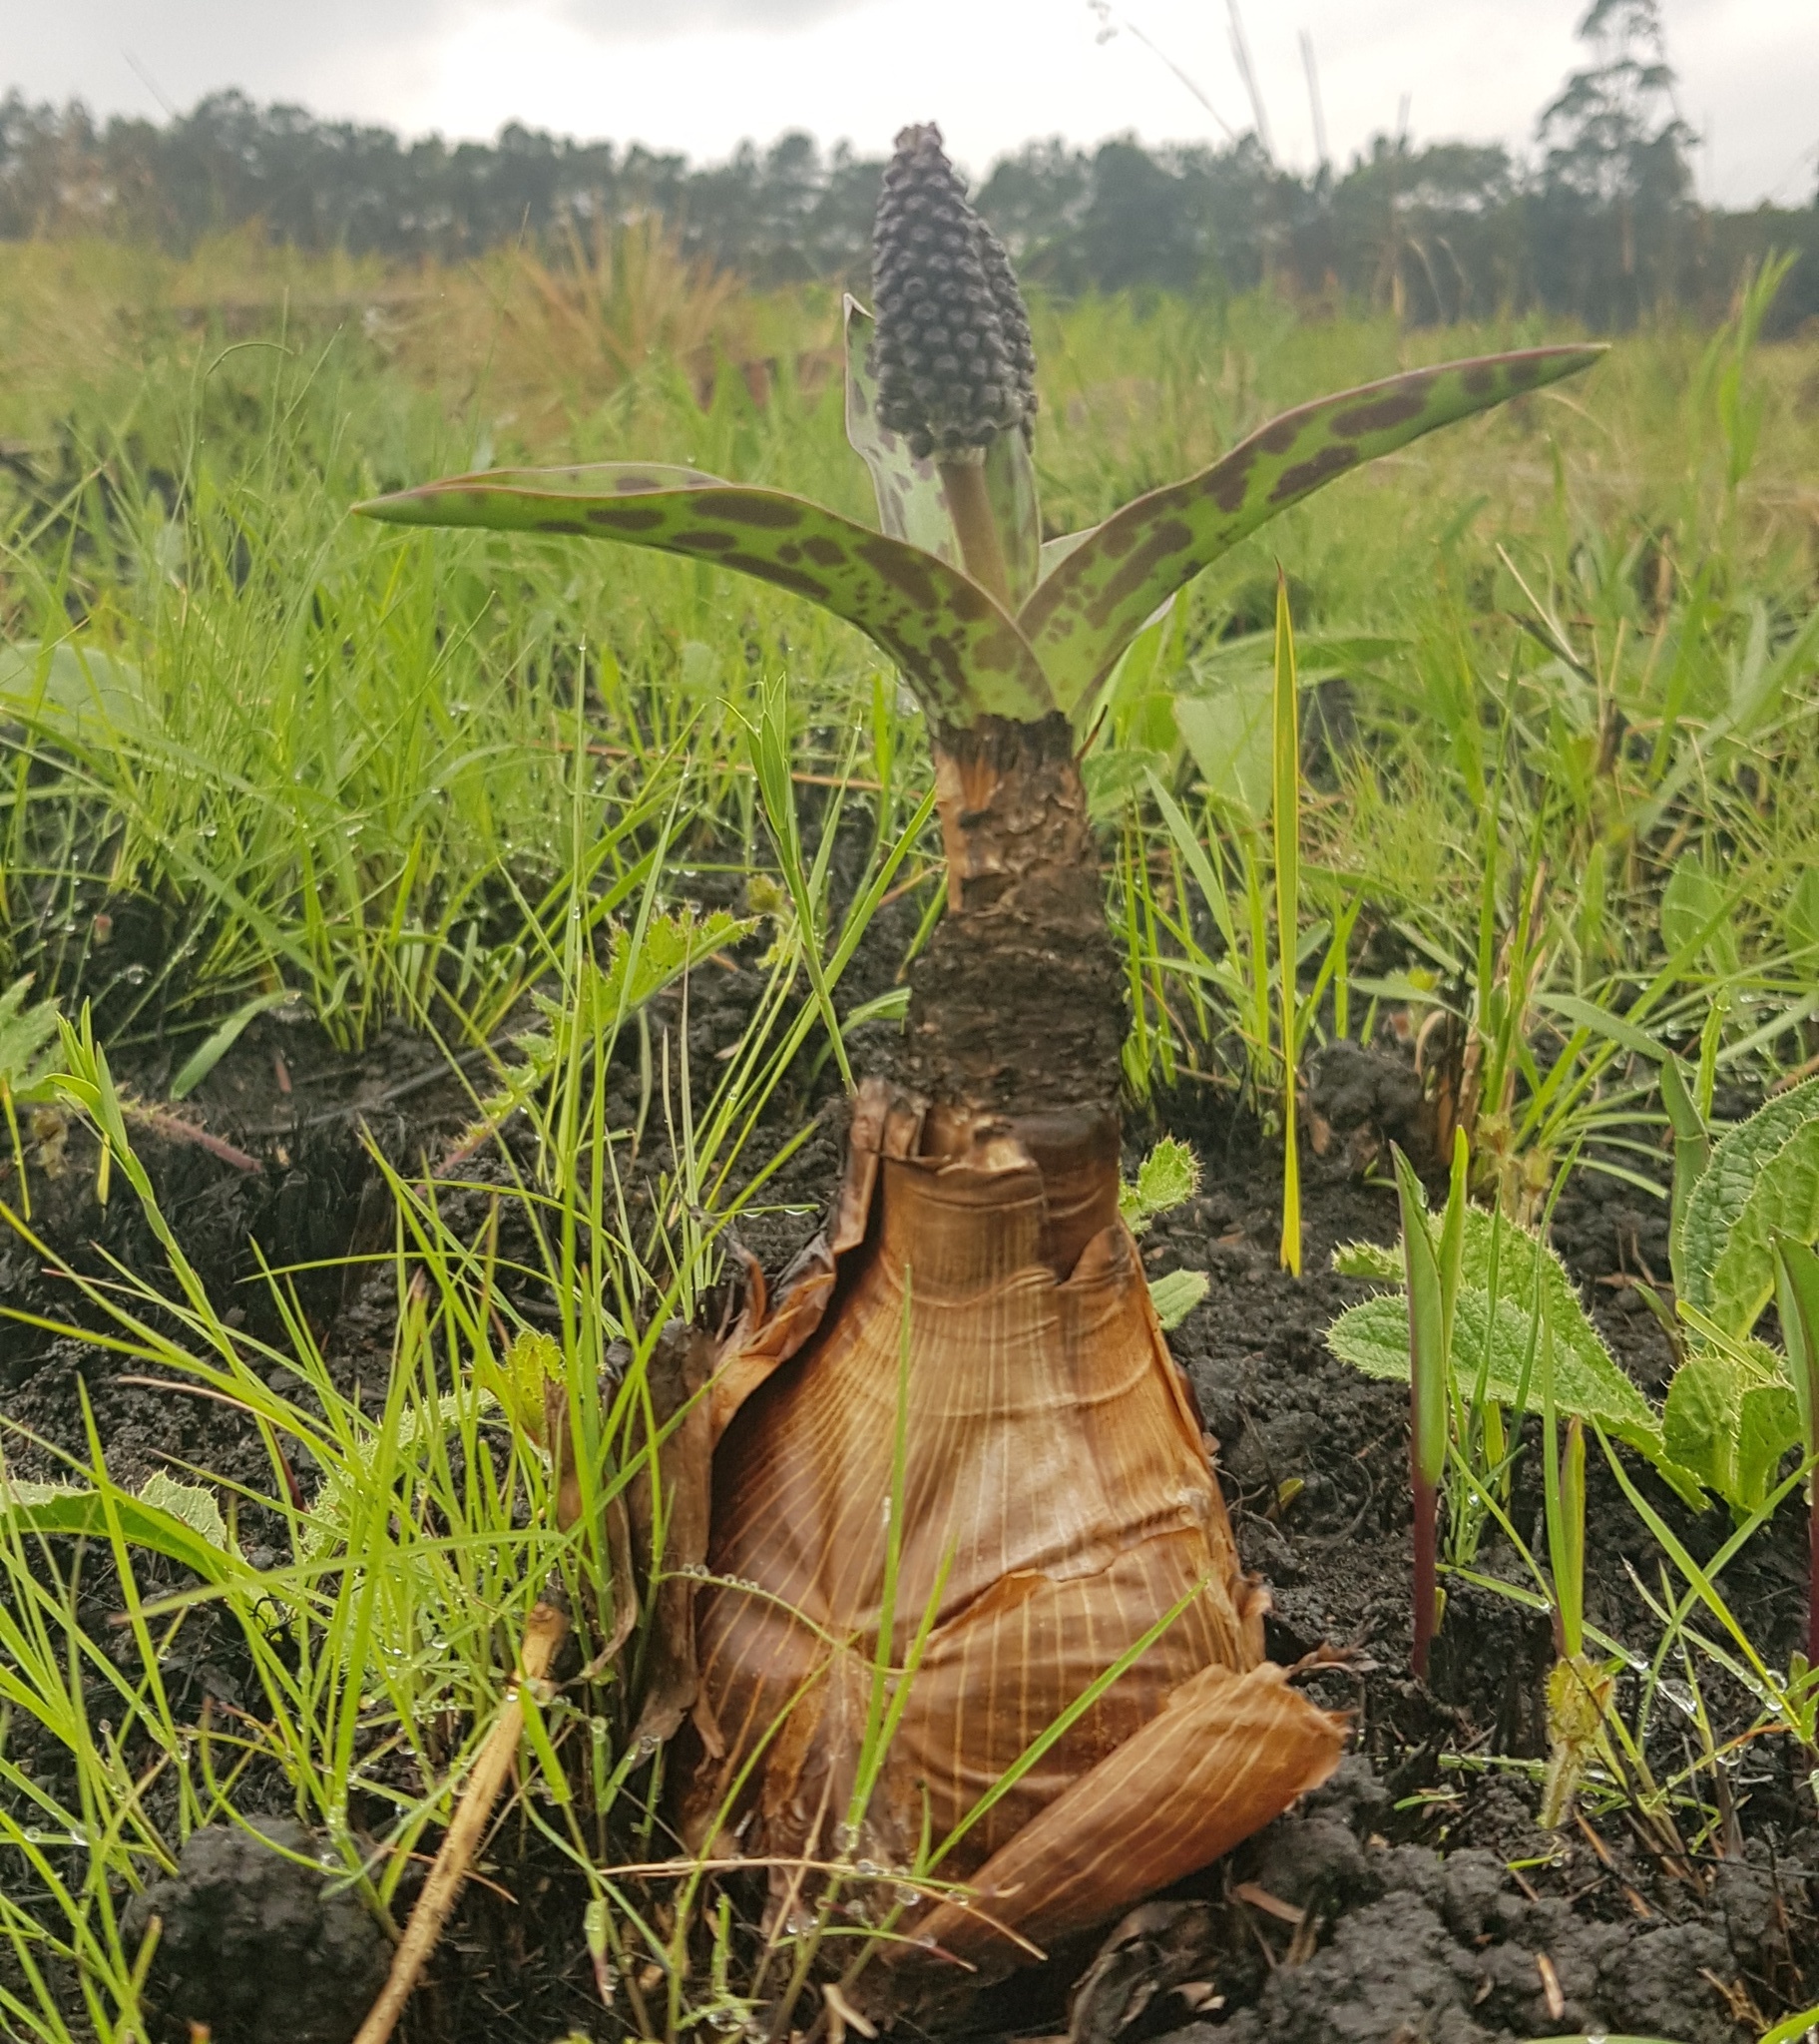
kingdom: Plantae
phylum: Tracheophyta
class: Liliopsida
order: Asparagales
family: Asparagaceae
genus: Ledebouria
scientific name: Ledebouria floribunda
